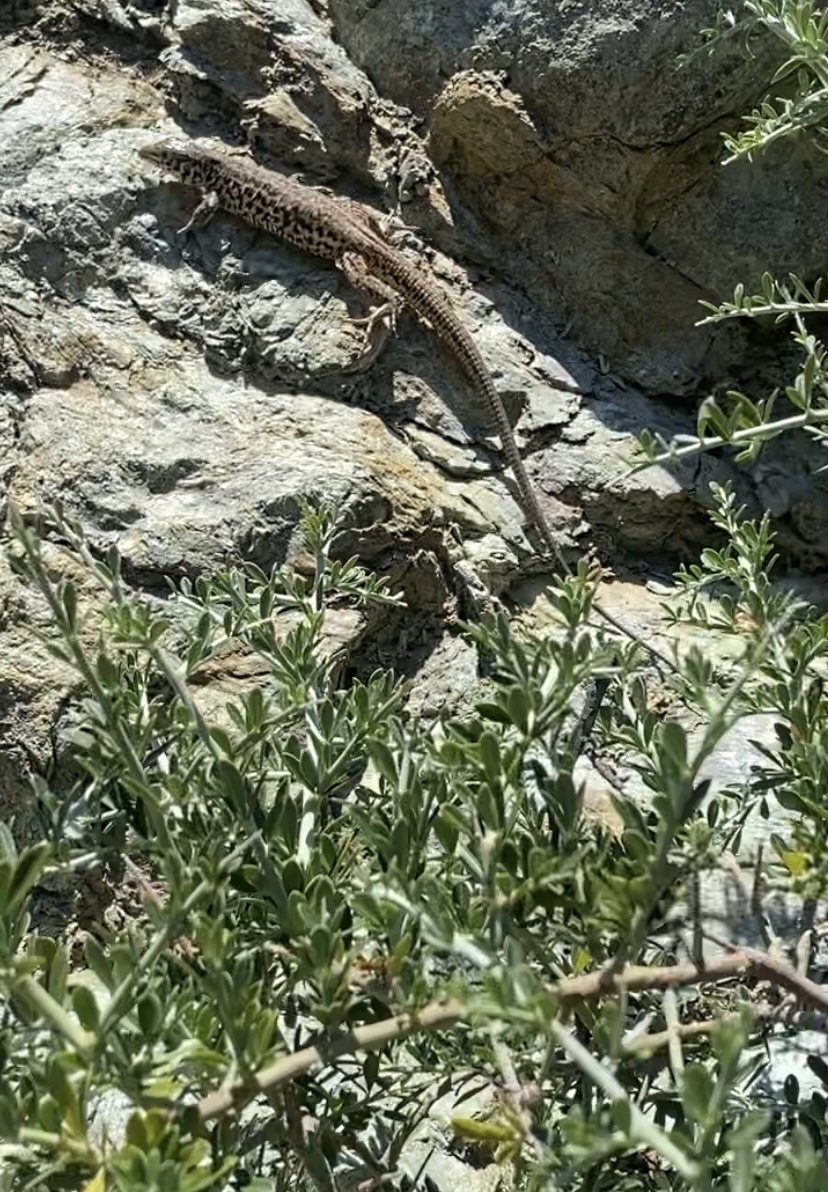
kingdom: Animalia
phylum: Chordata
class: Squamata
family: Teiidae
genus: Aspidoscelis
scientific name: Aspidoscelis tigris
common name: Tiger whiptail
